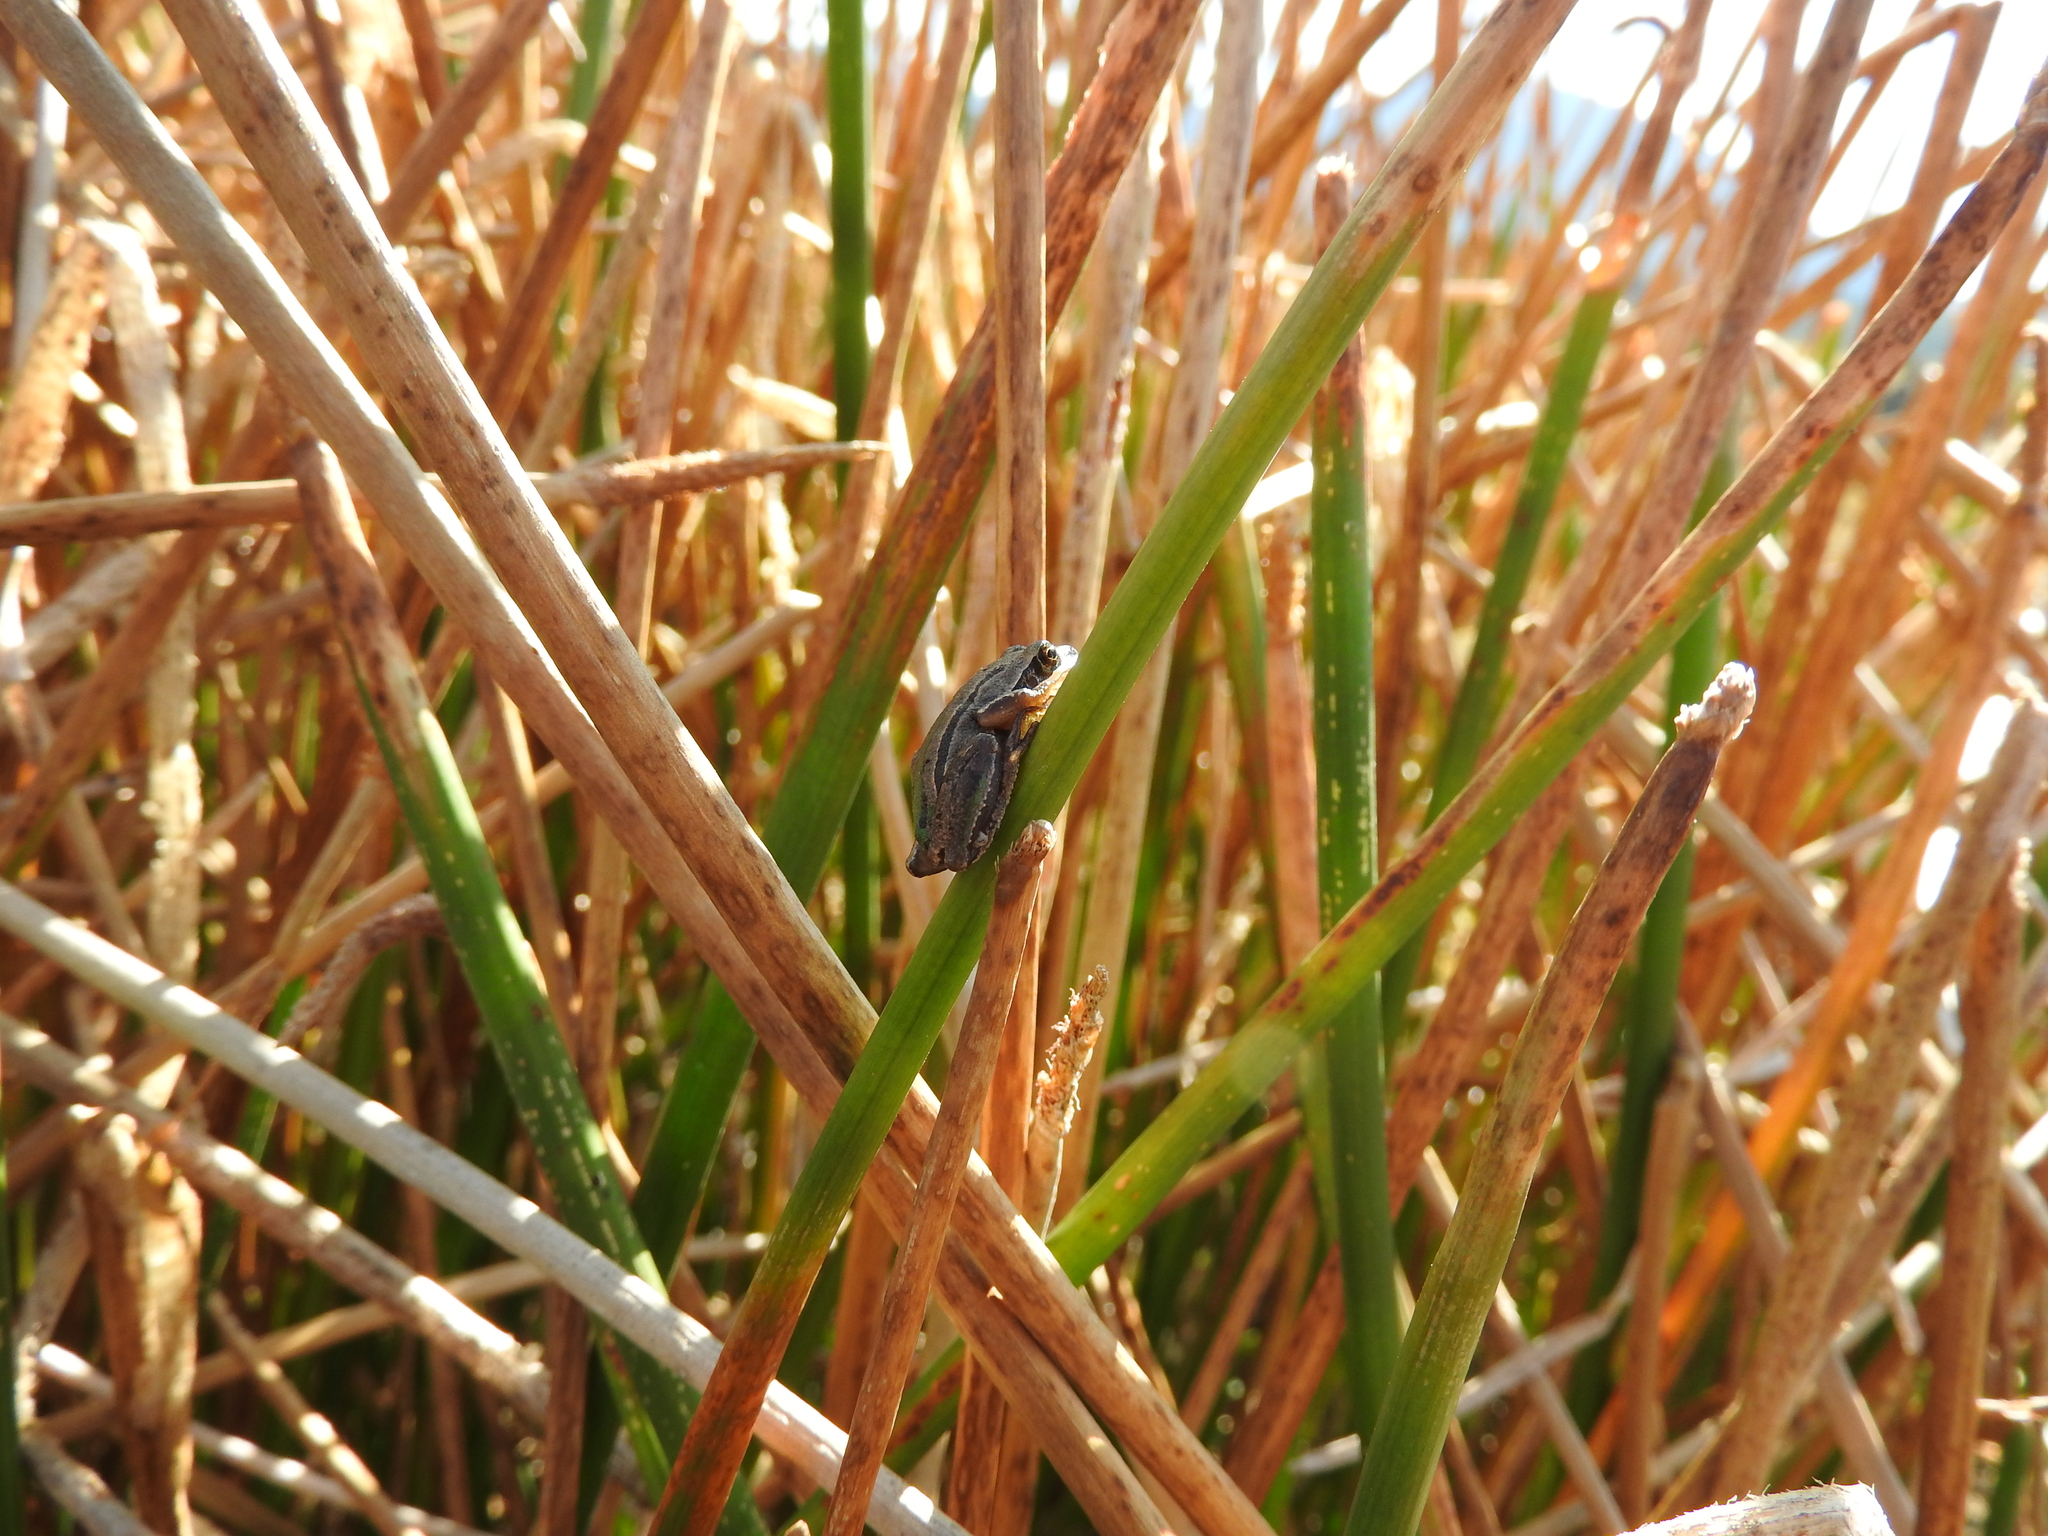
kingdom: Animalia
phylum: Chordata
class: Amphibia
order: Anura
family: Hylidae
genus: Dryophytes
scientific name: Dryophytes eximius
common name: Mountain treefrog
